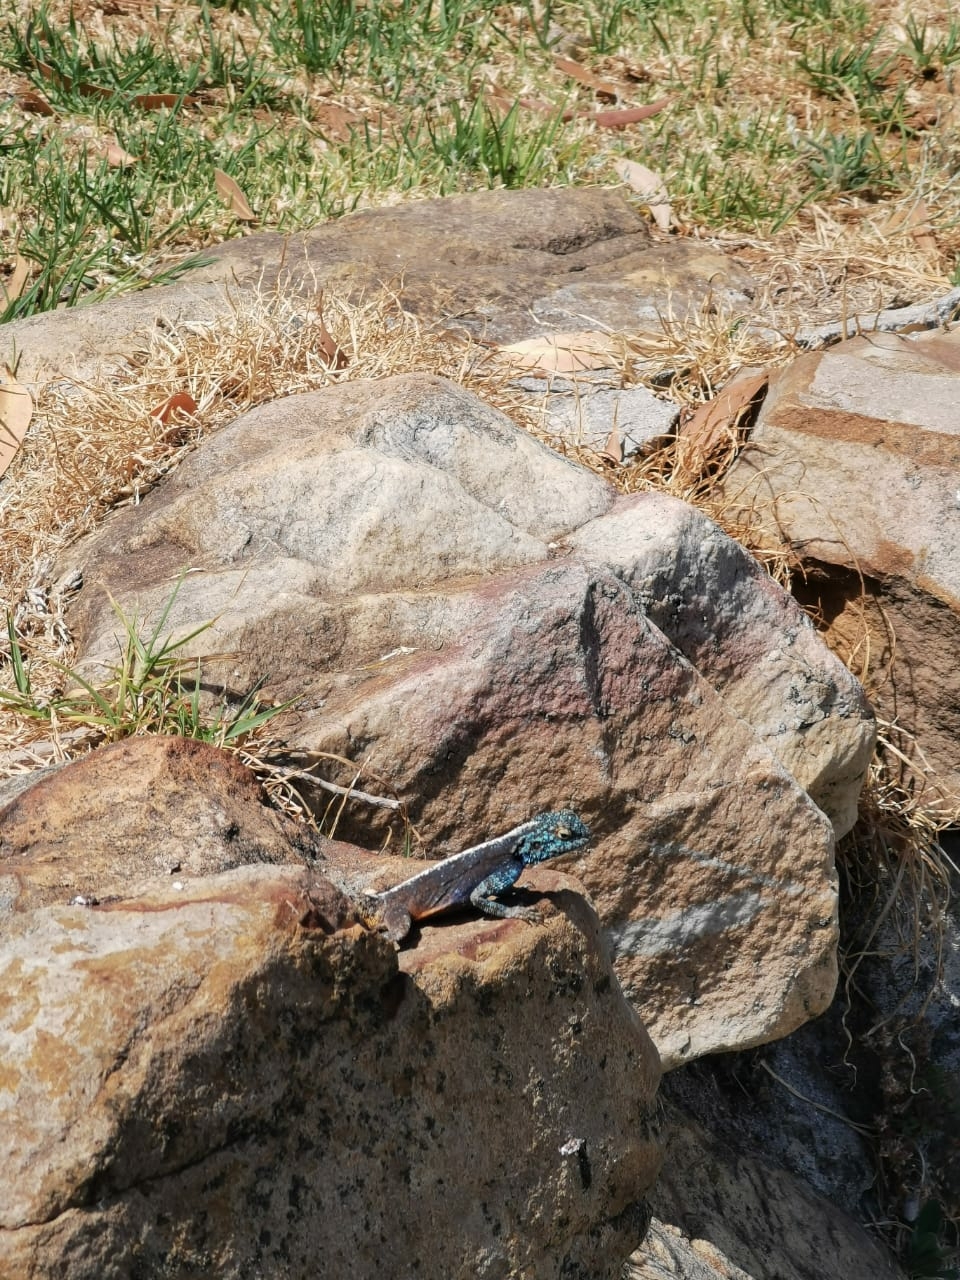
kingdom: Animalia
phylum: Chordata
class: Squamata
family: Agamidae
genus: Agama
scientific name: Agama atra
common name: Southern african rock agama
